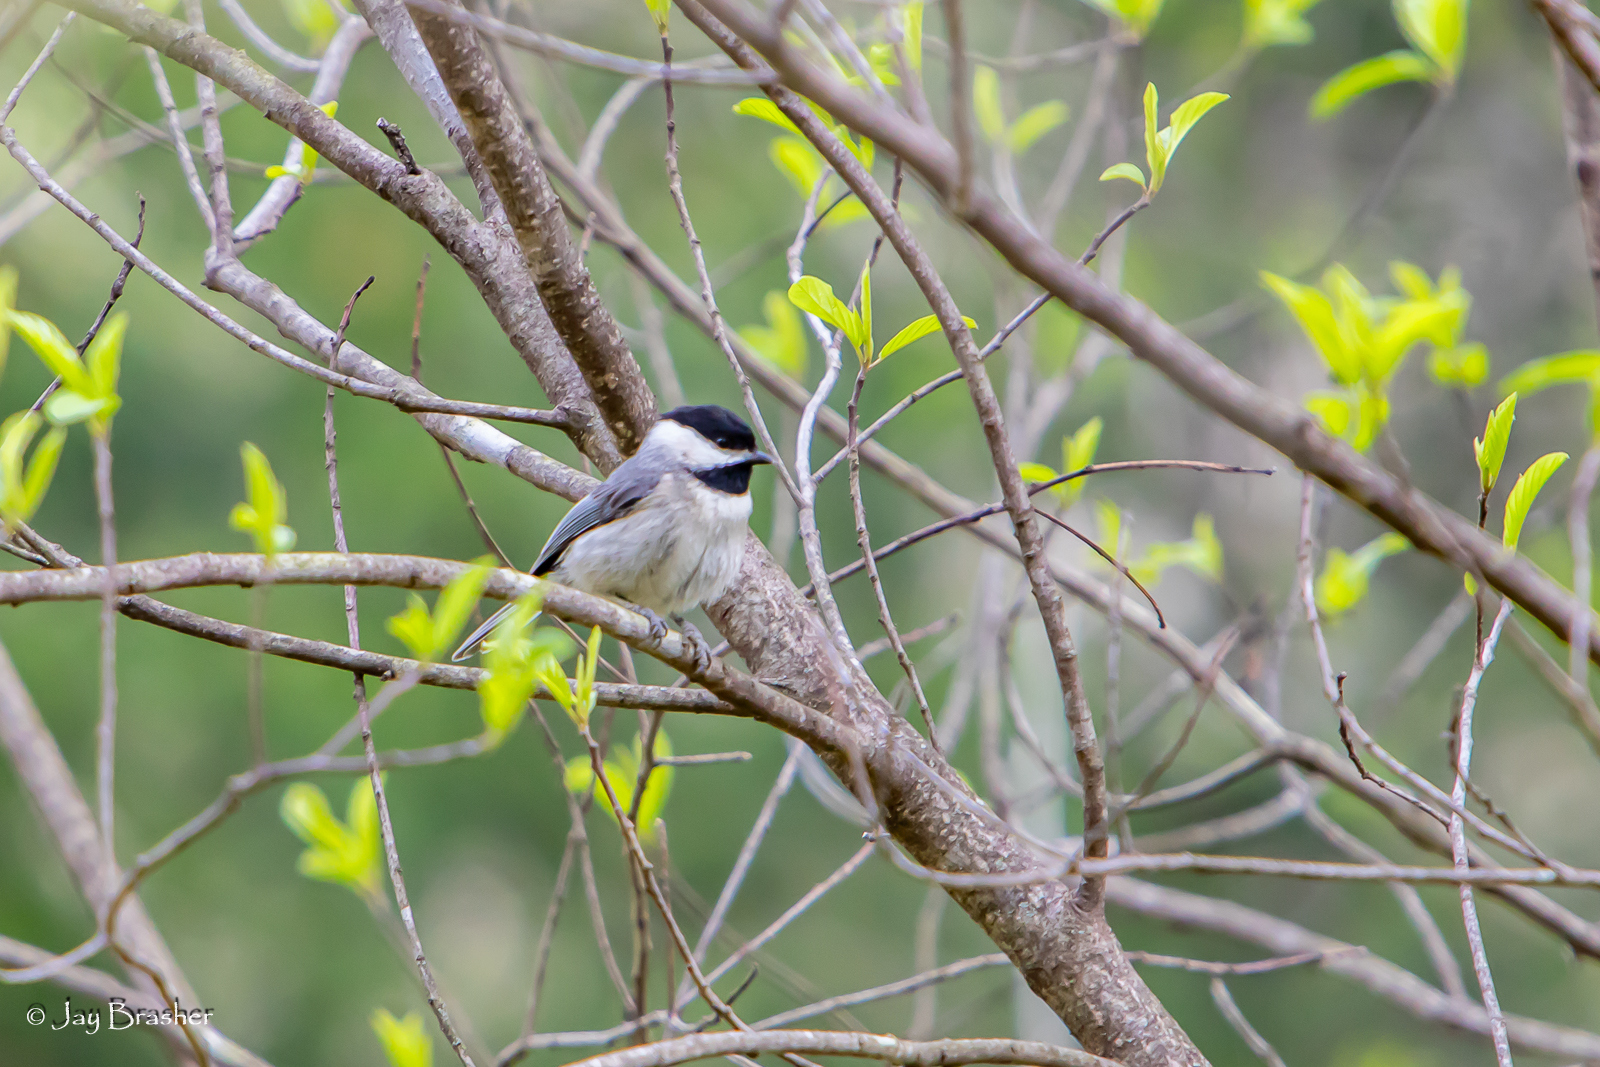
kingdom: Animalia
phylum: Chordata
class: Aves
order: Passeriformes
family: Paridae
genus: Poecile
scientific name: Poecile carolinensis
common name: Carolina chickadee
